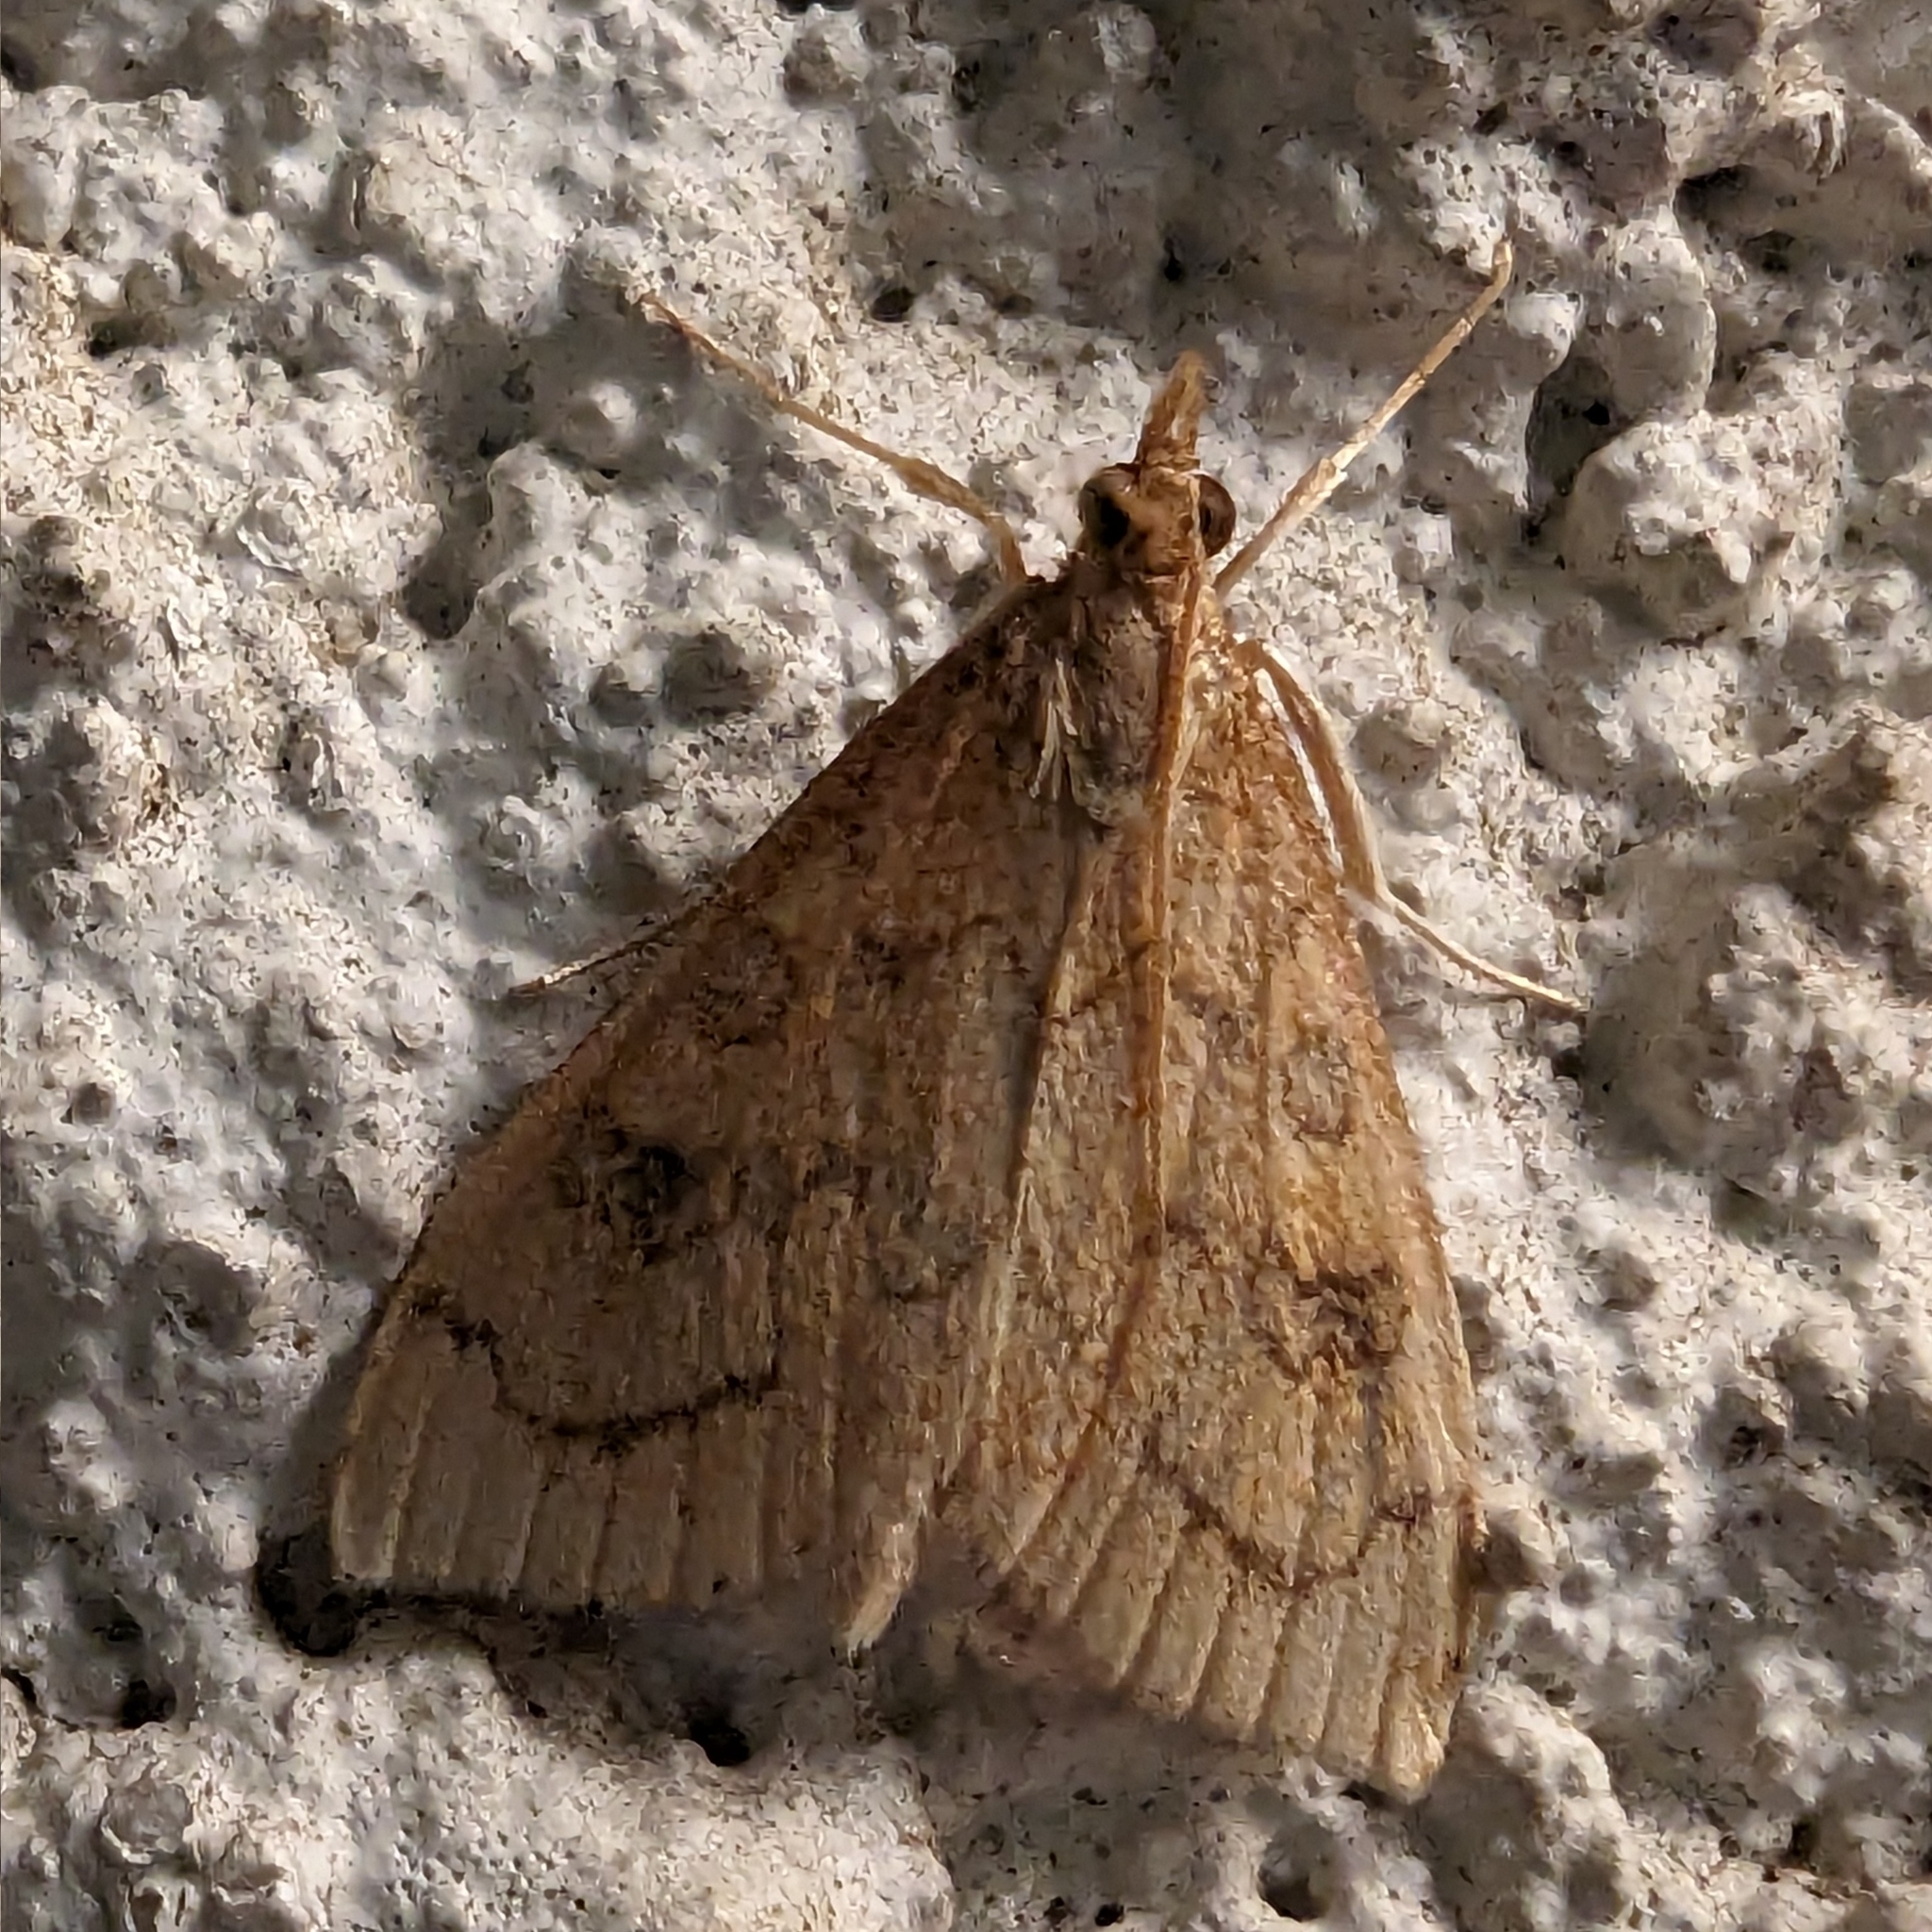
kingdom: Animalia
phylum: Arthropoda
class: Insecta
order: Lepidoptera
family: Crambidae
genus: Udea
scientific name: Udea profundalis
